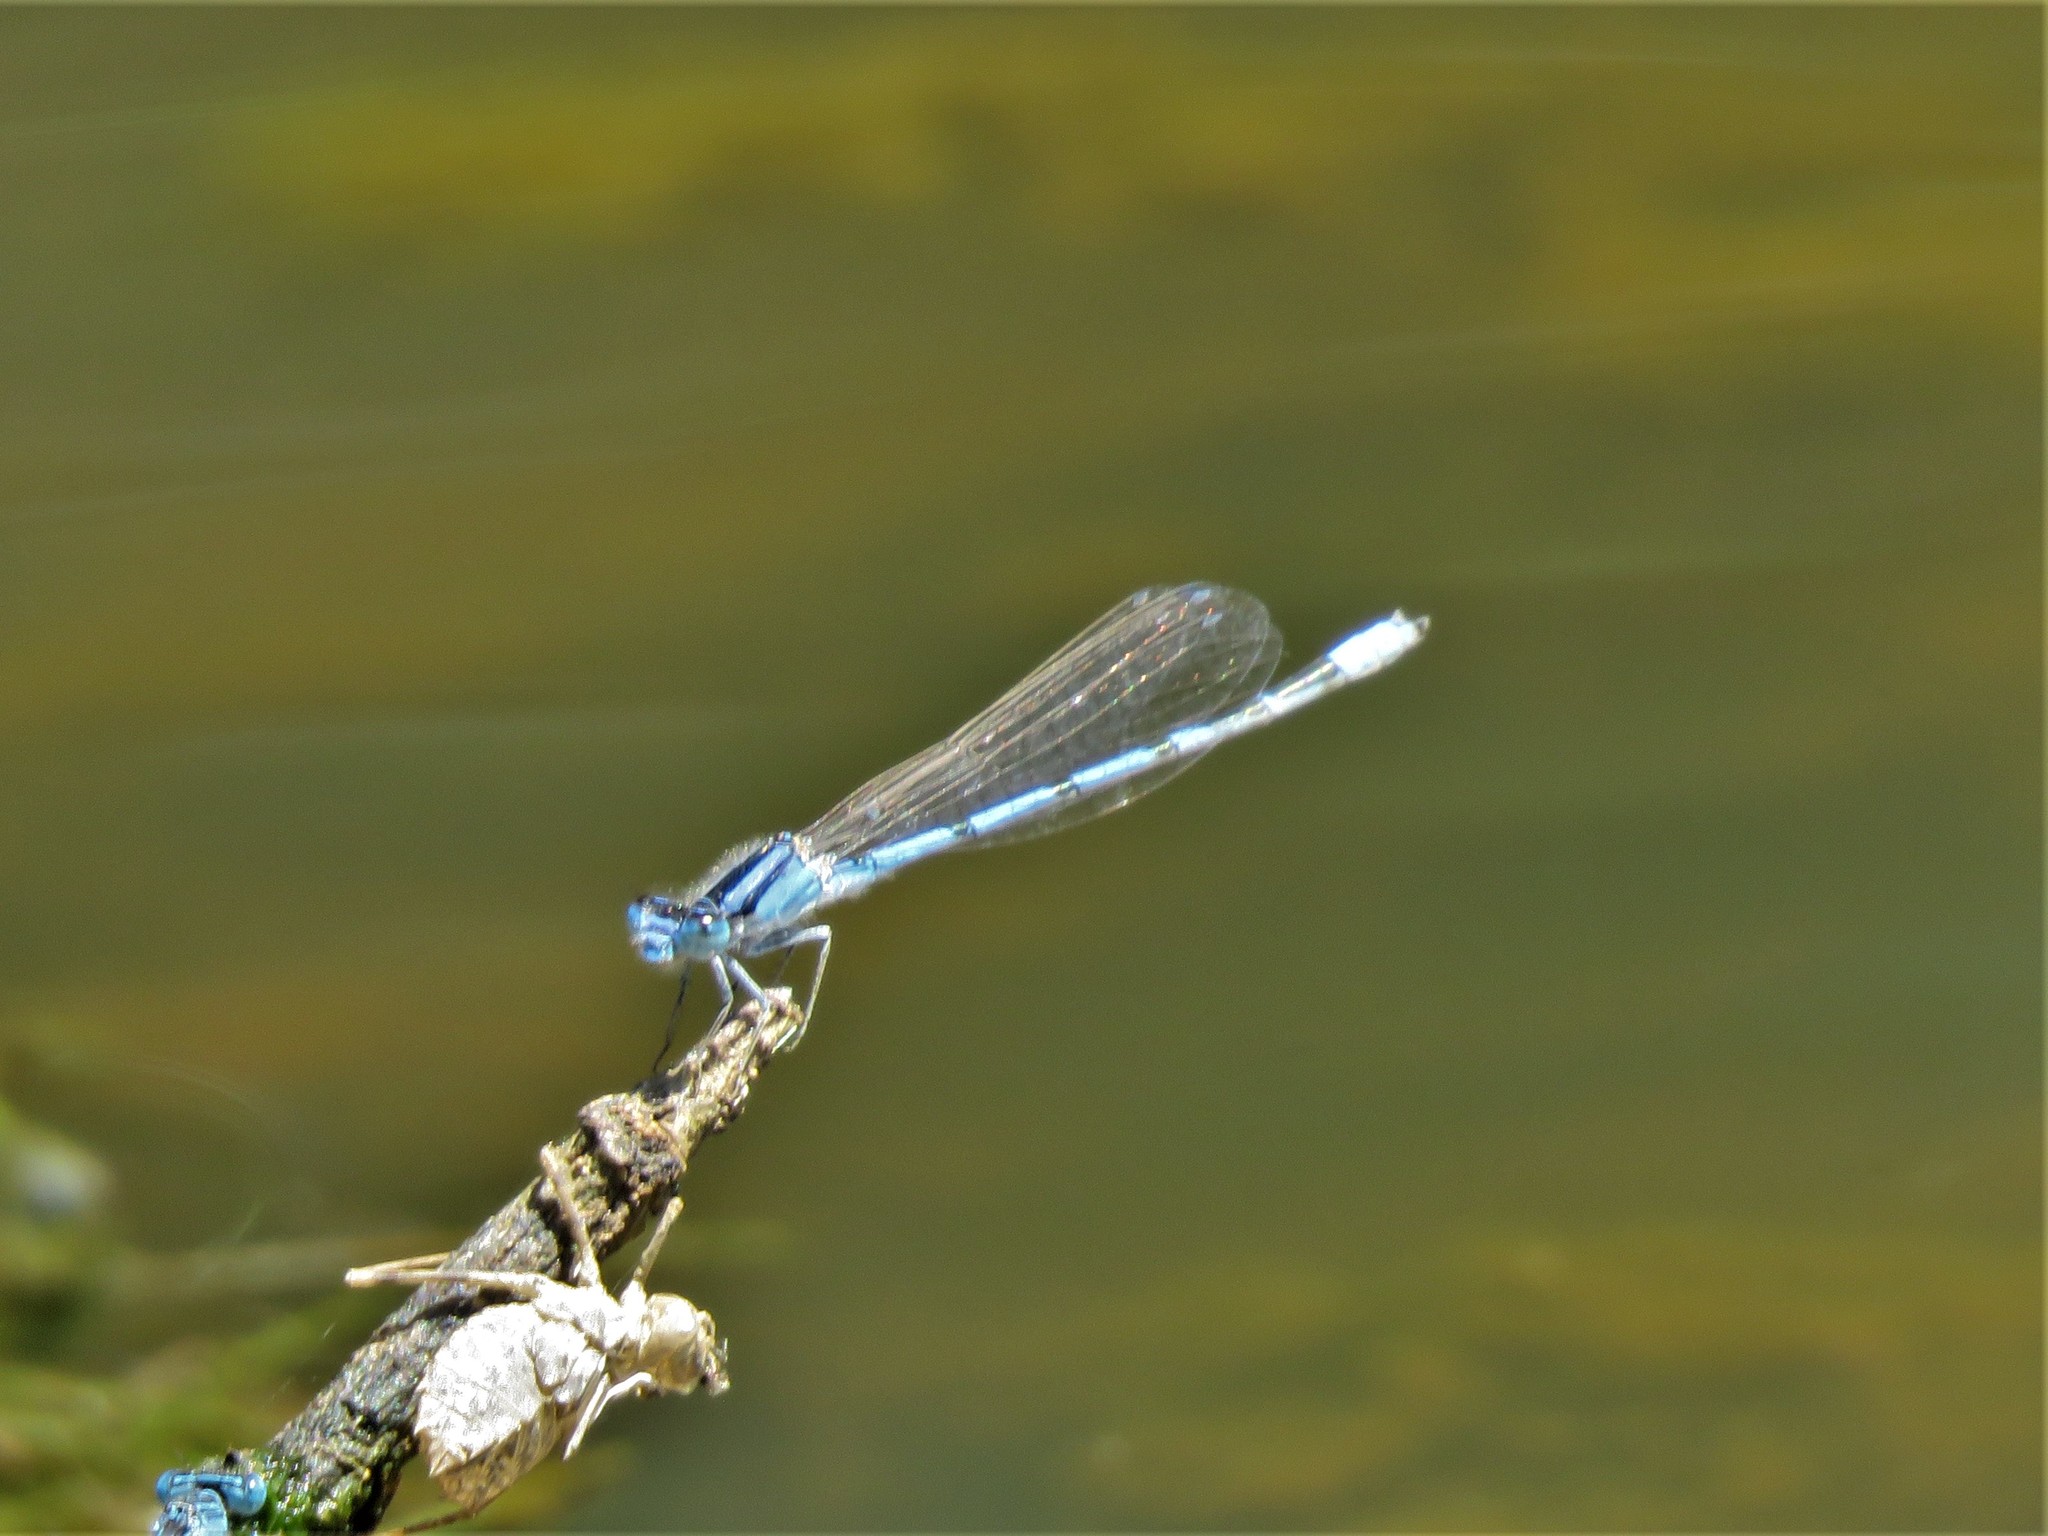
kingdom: Animalia
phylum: Arthropoda
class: Insecta
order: Odonata
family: Coenagrionidae
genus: Enallagma
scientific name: Enallagma civile
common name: Damselfly
